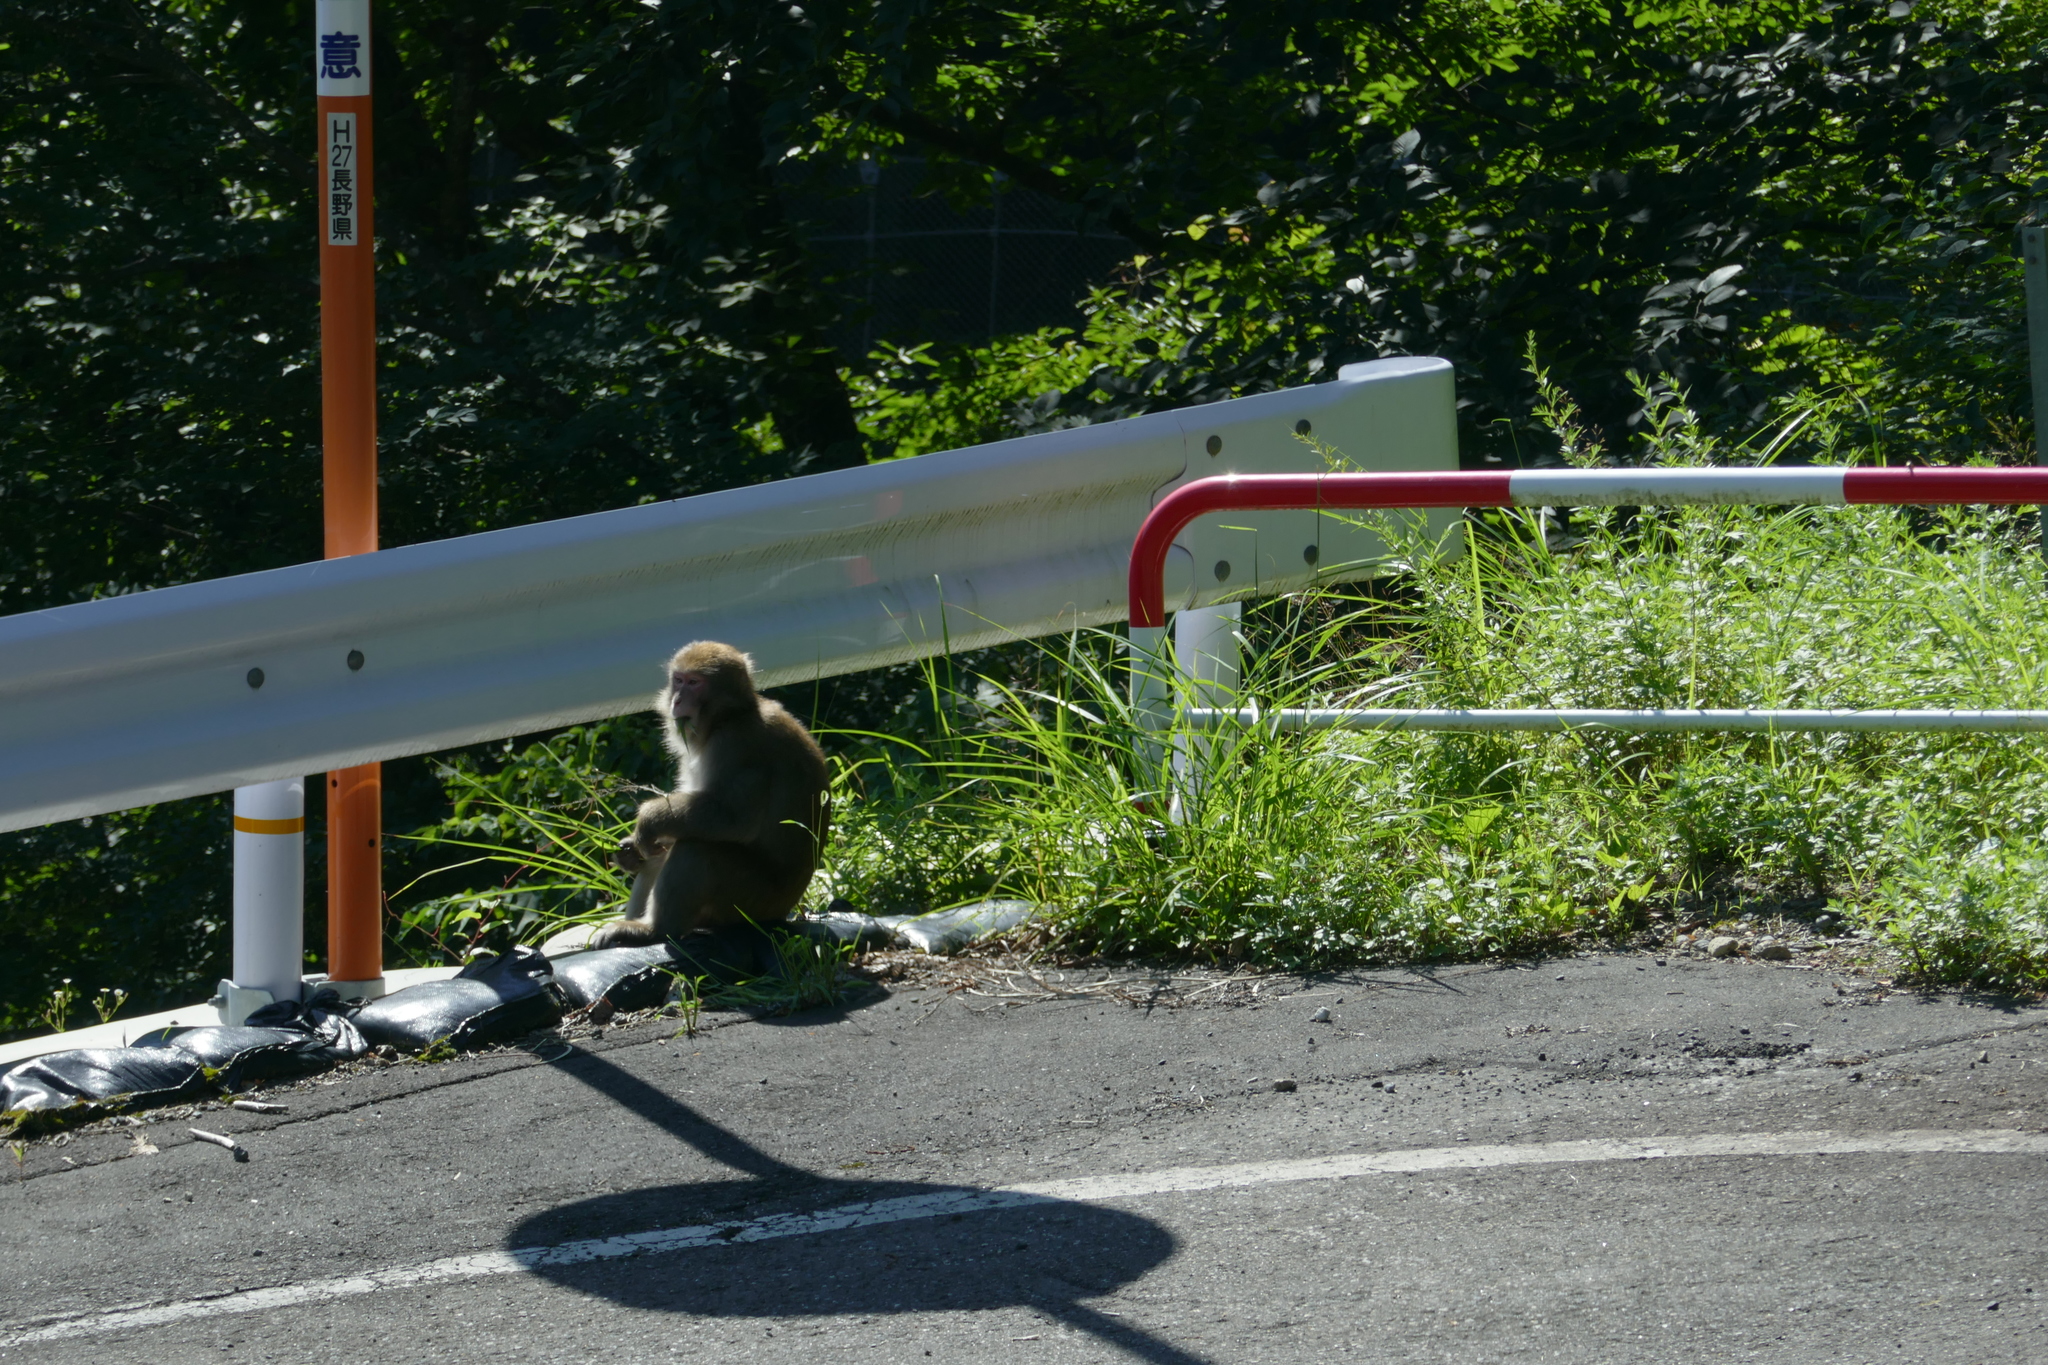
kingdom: Animalia
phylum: Chordata
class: Mammalia
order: Primates
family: Cercopithecidae
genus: Macaca
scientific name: Macaca fuscata
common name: Japanese macaque
